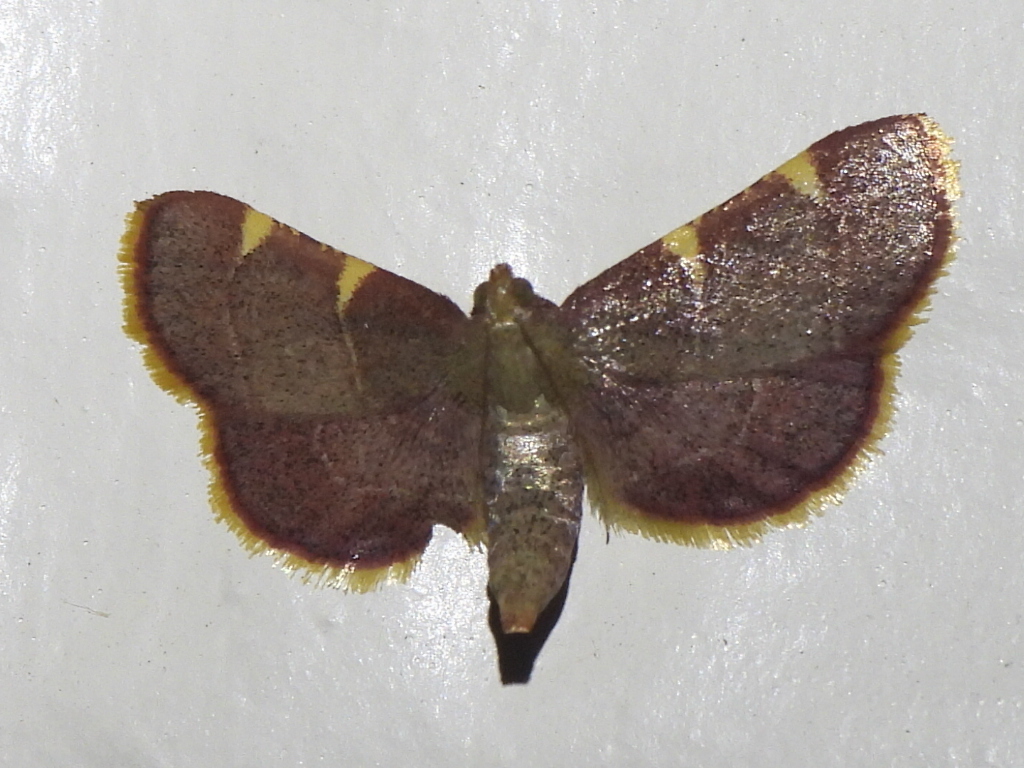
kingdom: Animalia
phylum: Arthropoda
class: Insecta
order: Lepidoptera
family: Pyralidae
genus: Hypsopygia
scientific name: Hypsopygia olinalis
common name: Yellow-fringed dolichomia moth
